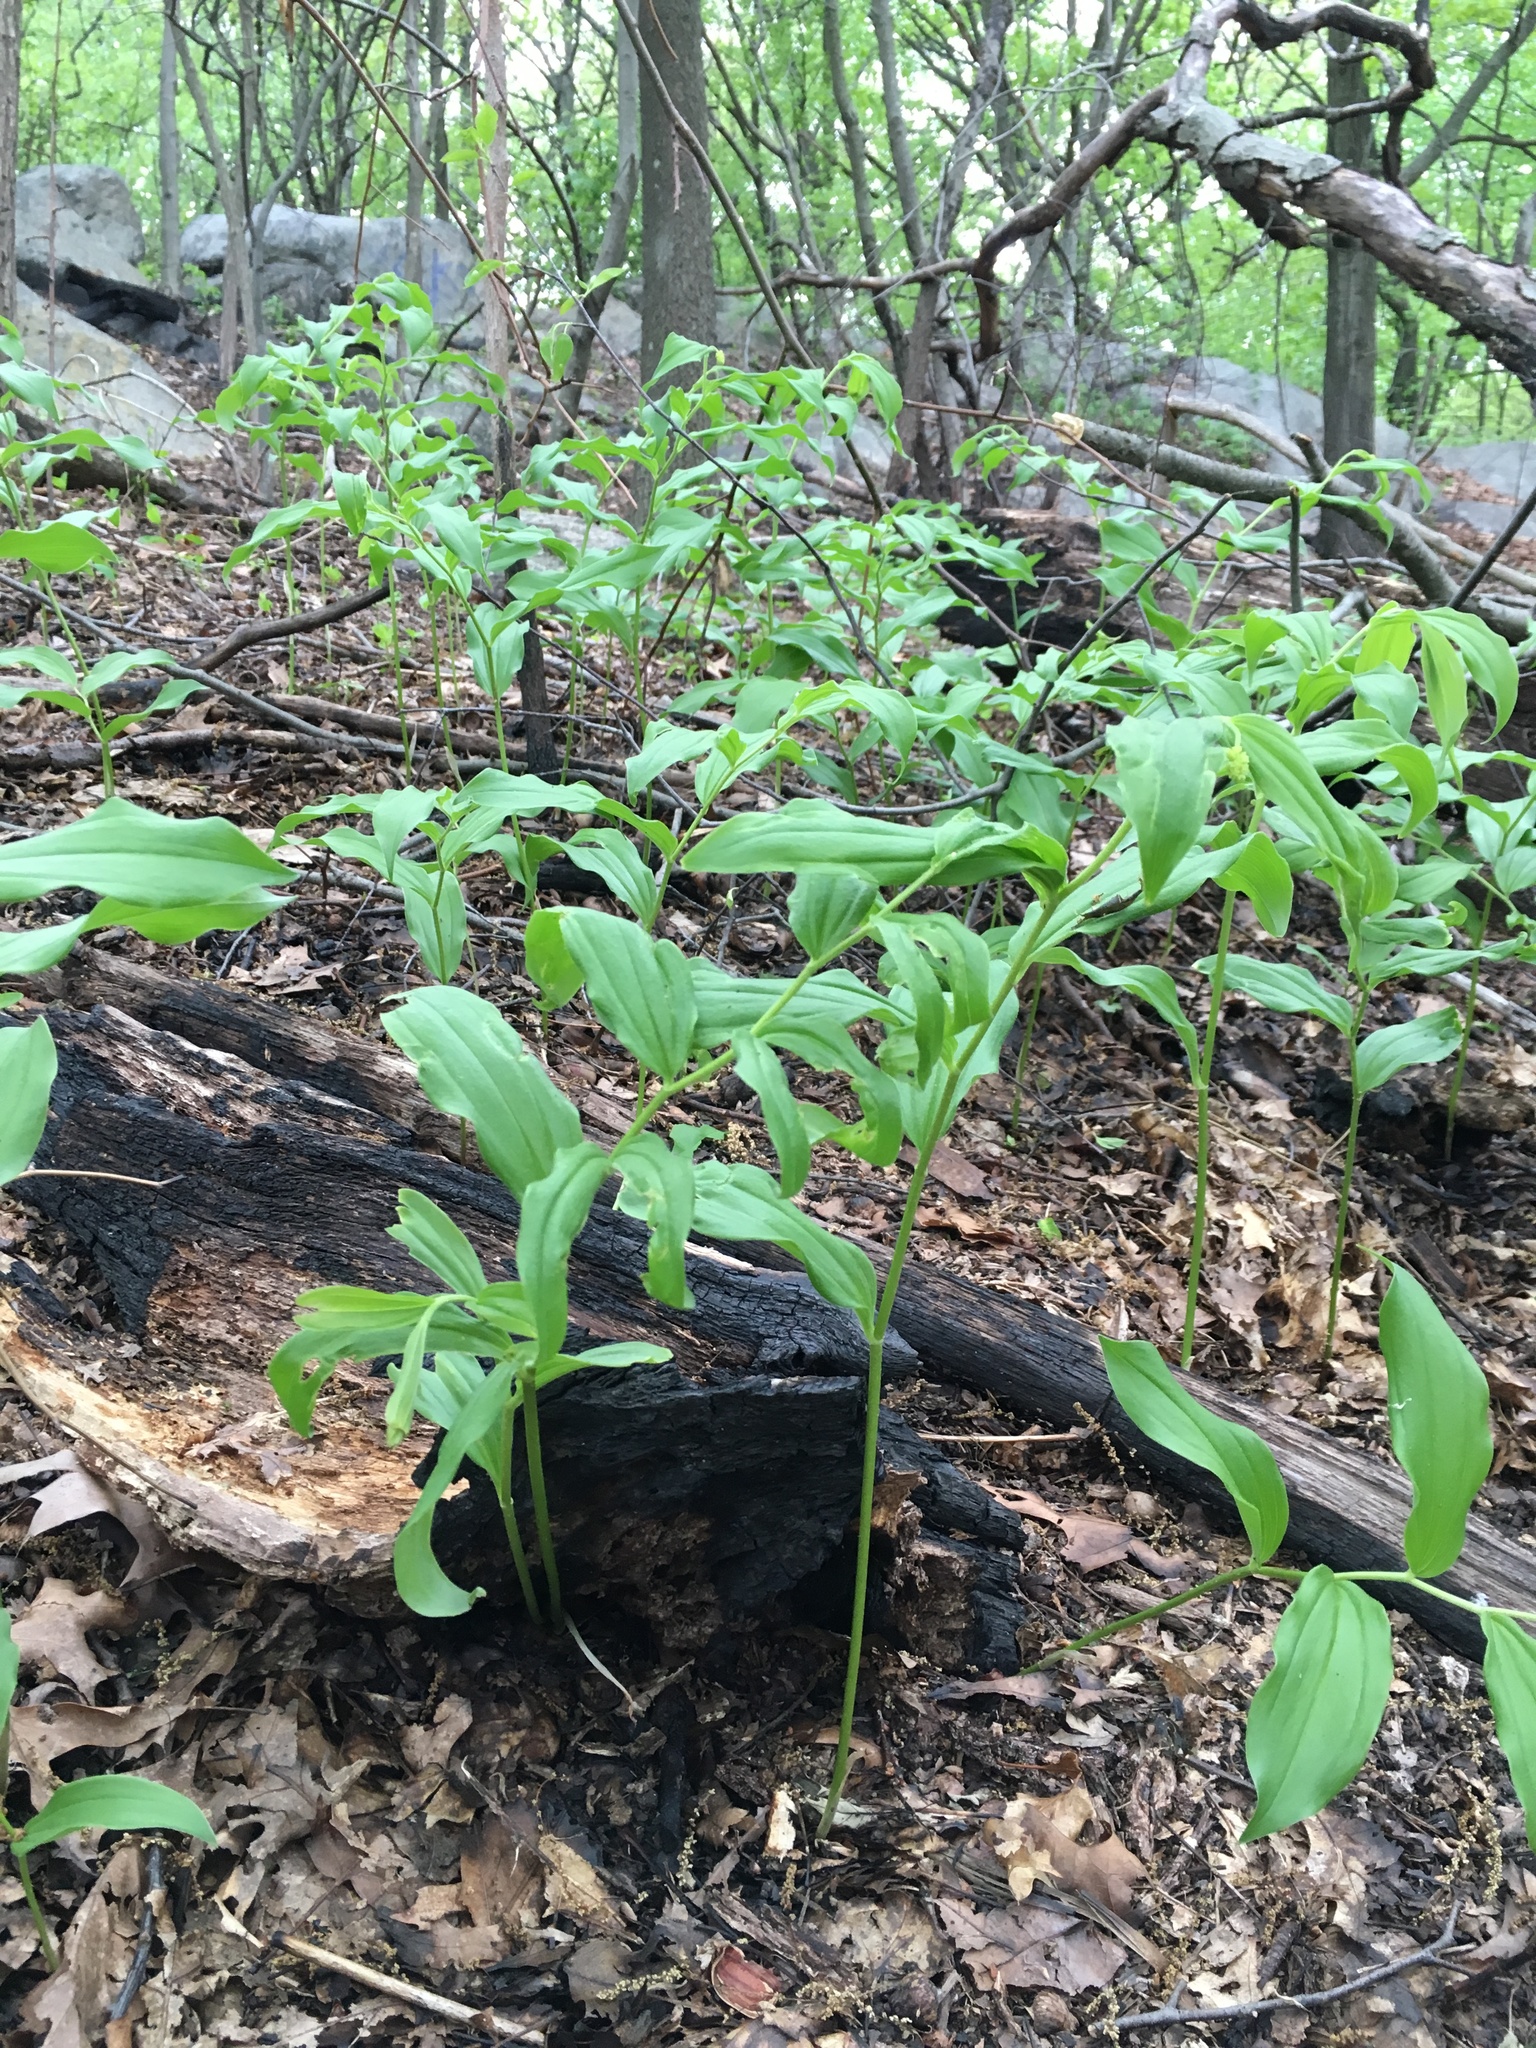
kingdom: Plantae
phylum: Tracheophyta
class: Liliopsida
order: Asparagales
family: Asparagaceae
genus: Maianthemum
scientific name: Maianthemum racemosum
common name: False spikenard
